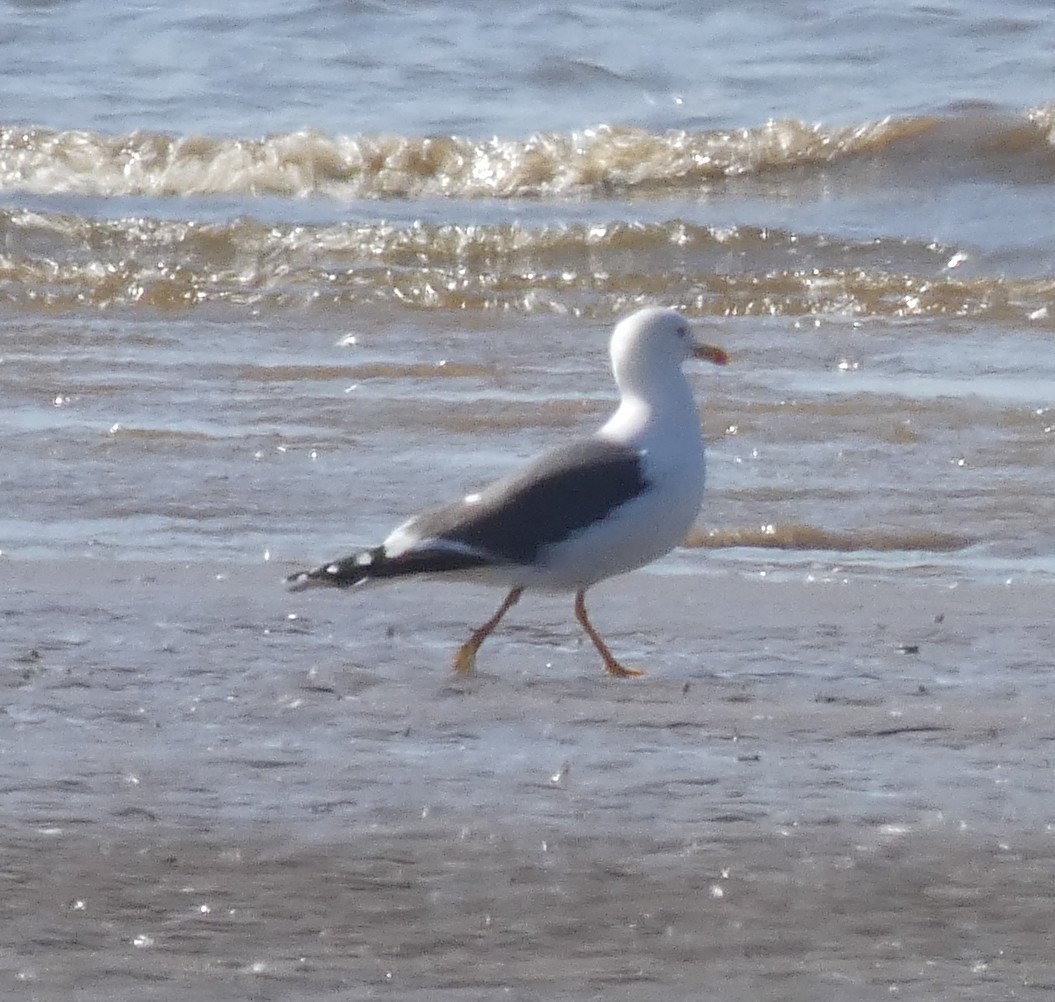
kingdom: Animalia
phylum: Chordata
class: Aves
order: Charadriiformes
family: Laridae
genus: Larus
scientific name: Larus fuscus
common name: Lesser black-backed gull
